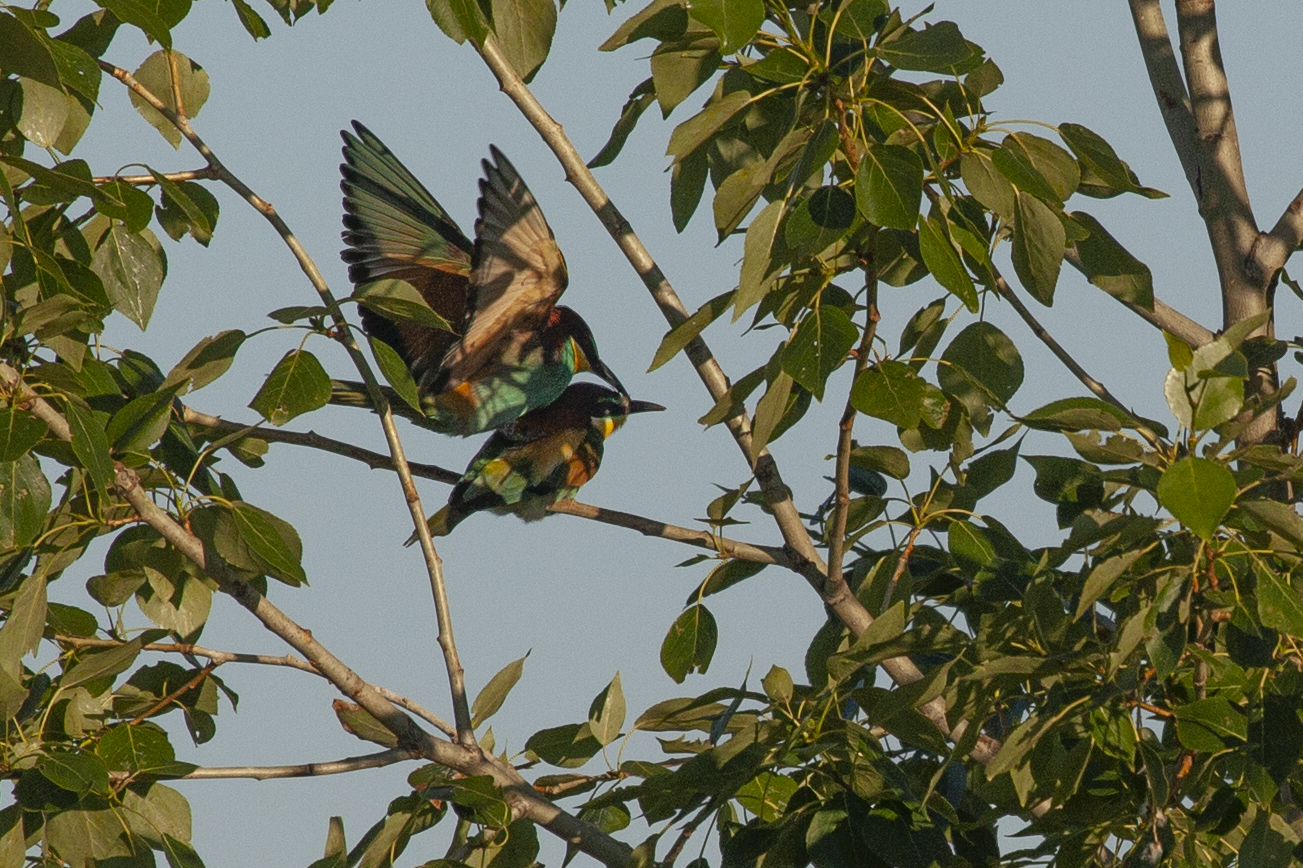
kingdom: Animalia
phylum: Chordata
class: Aves
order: Coraciiformes
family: Meropidae
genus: Merops
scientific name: Merops apiaster
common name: European bee-eater
